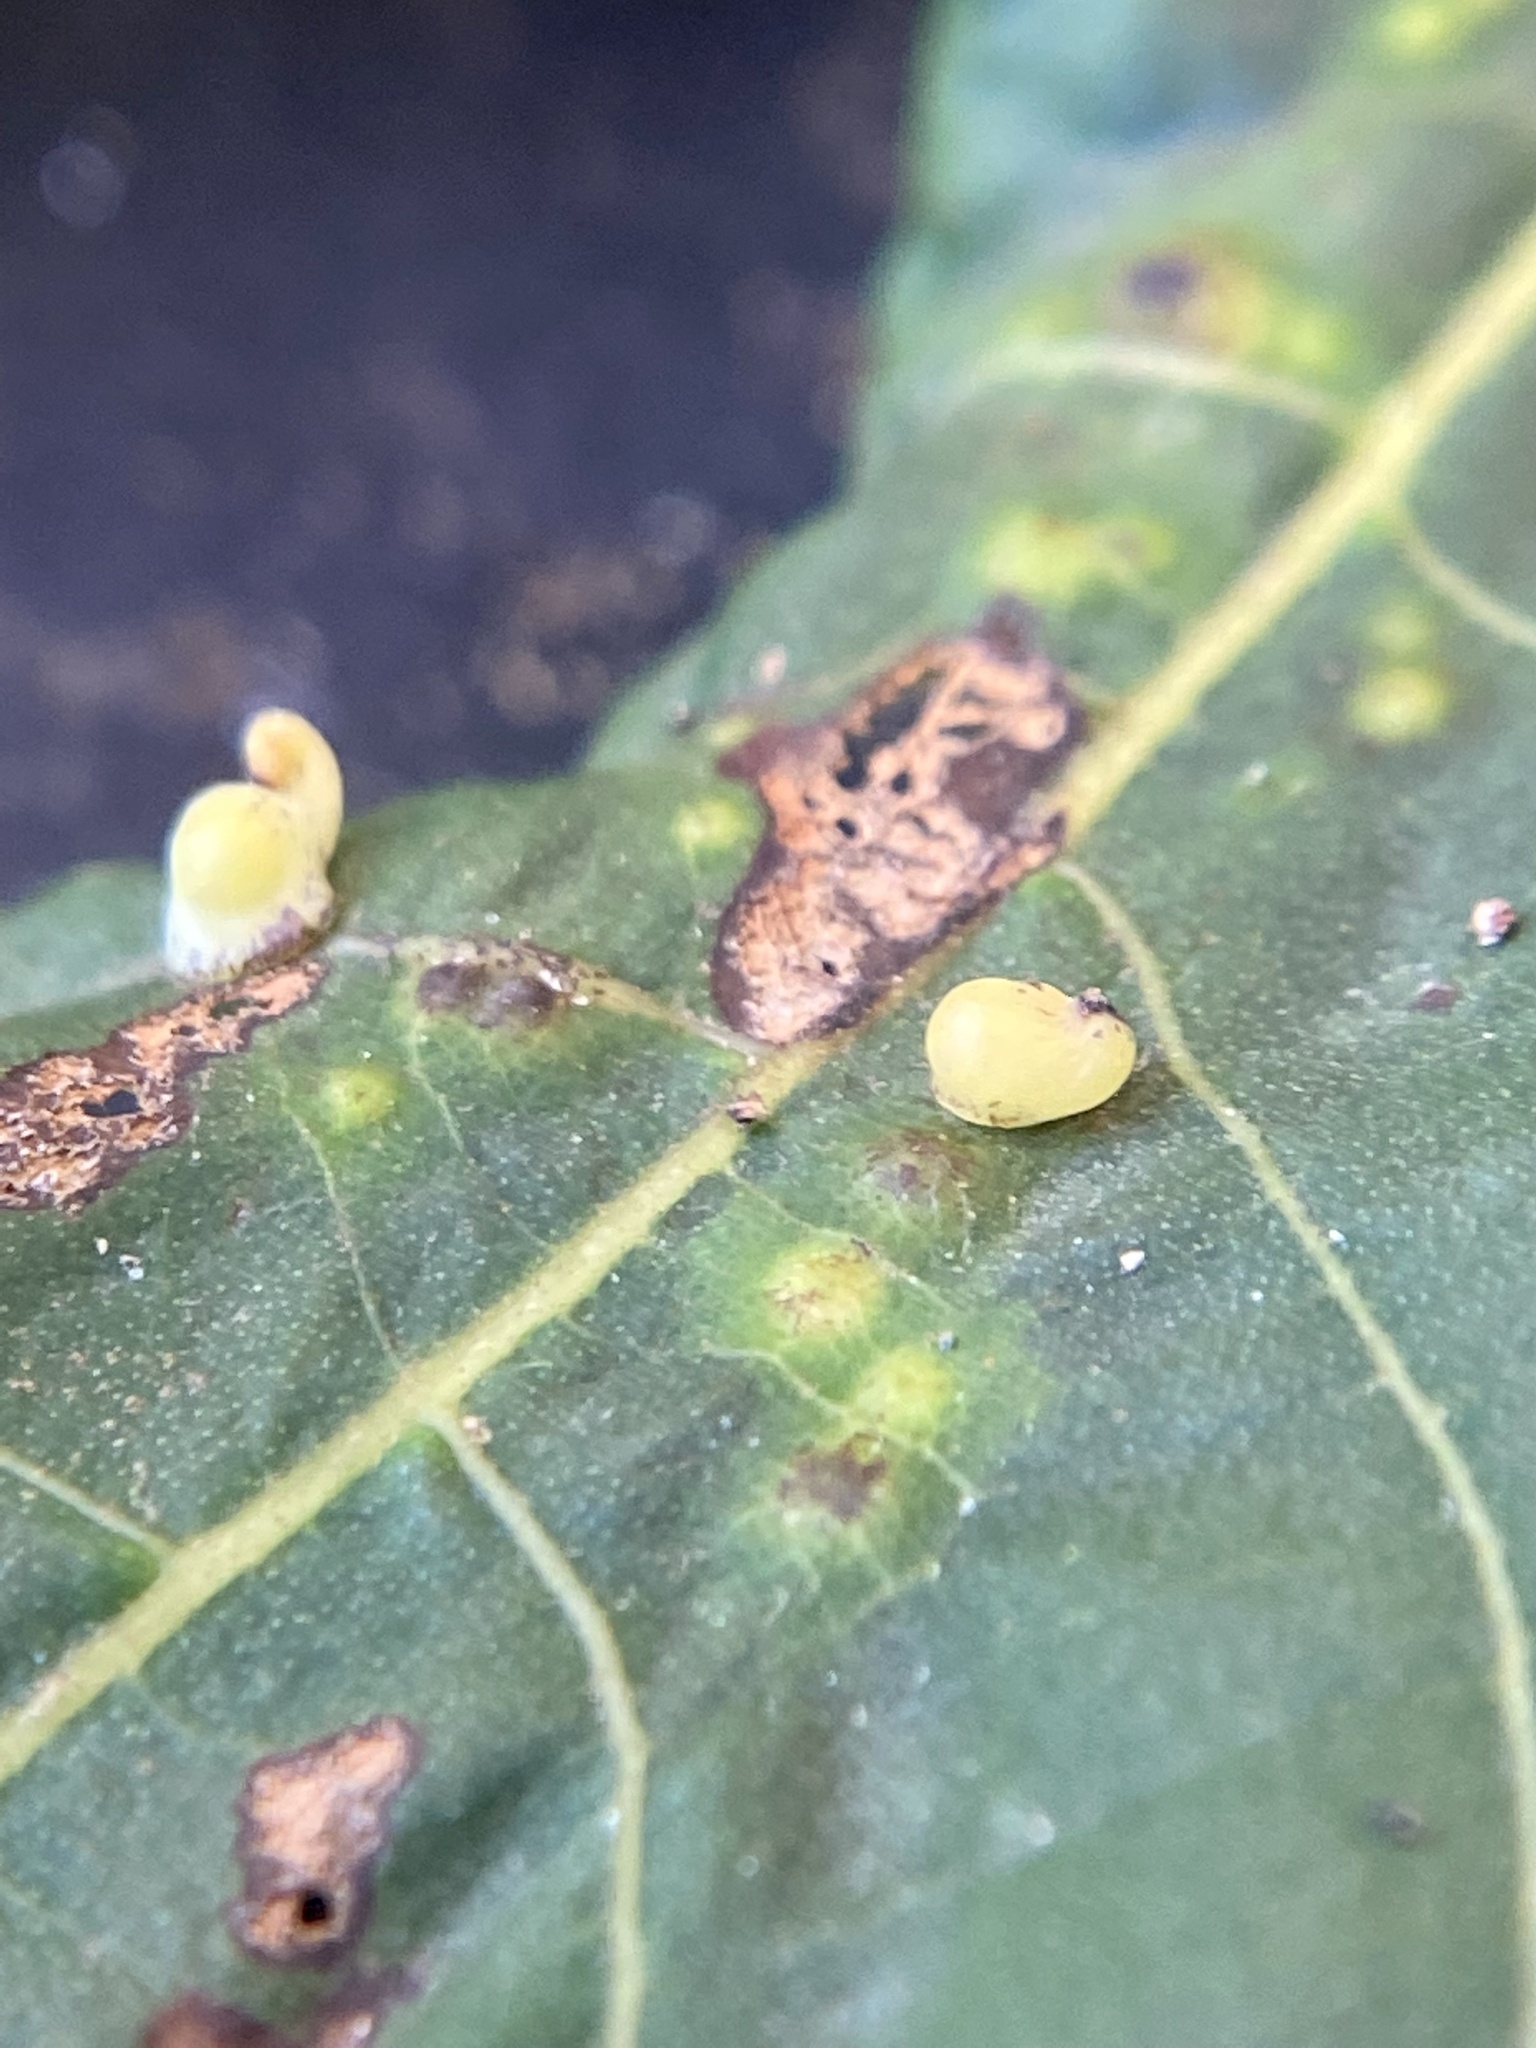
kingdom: Animalia
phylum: Arthropoda
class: Insecta
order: Diptera
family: Cecidomyiidae
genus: Caryomyia
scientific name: Caryomyia recurvata
